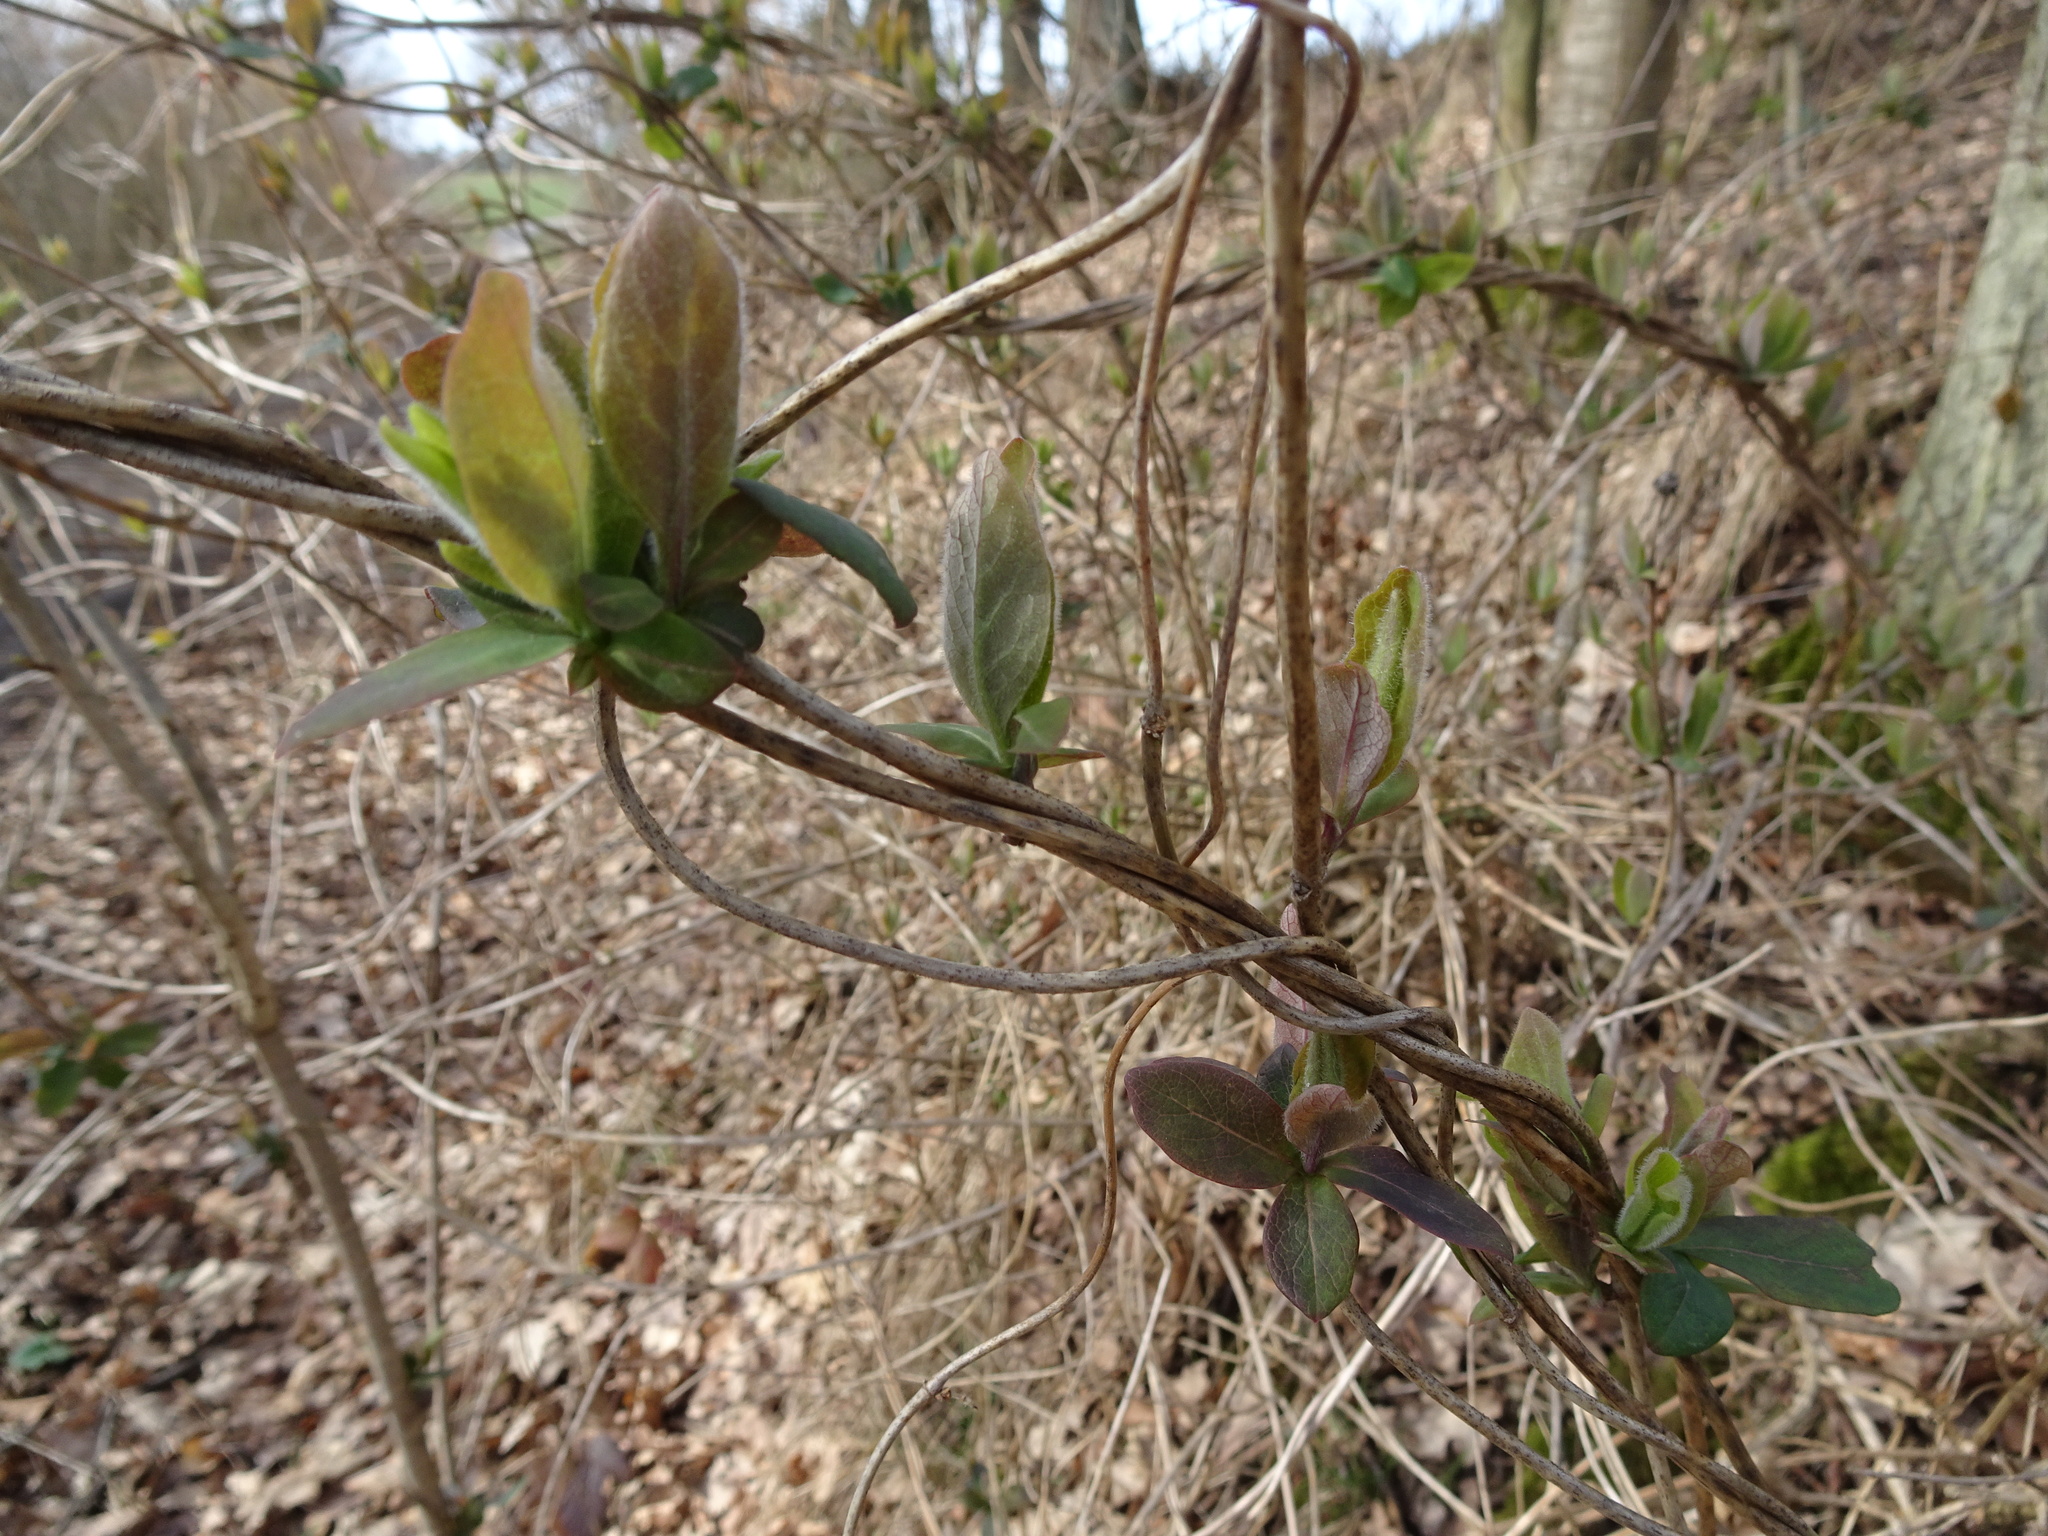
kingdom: Plantae
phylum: Tracheophyta
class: Magnoliopsida
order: Dipsacales
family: Caprifoliaceae
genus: Lonicera
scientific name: Lonicera periclymenum
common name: European honeysuckle
